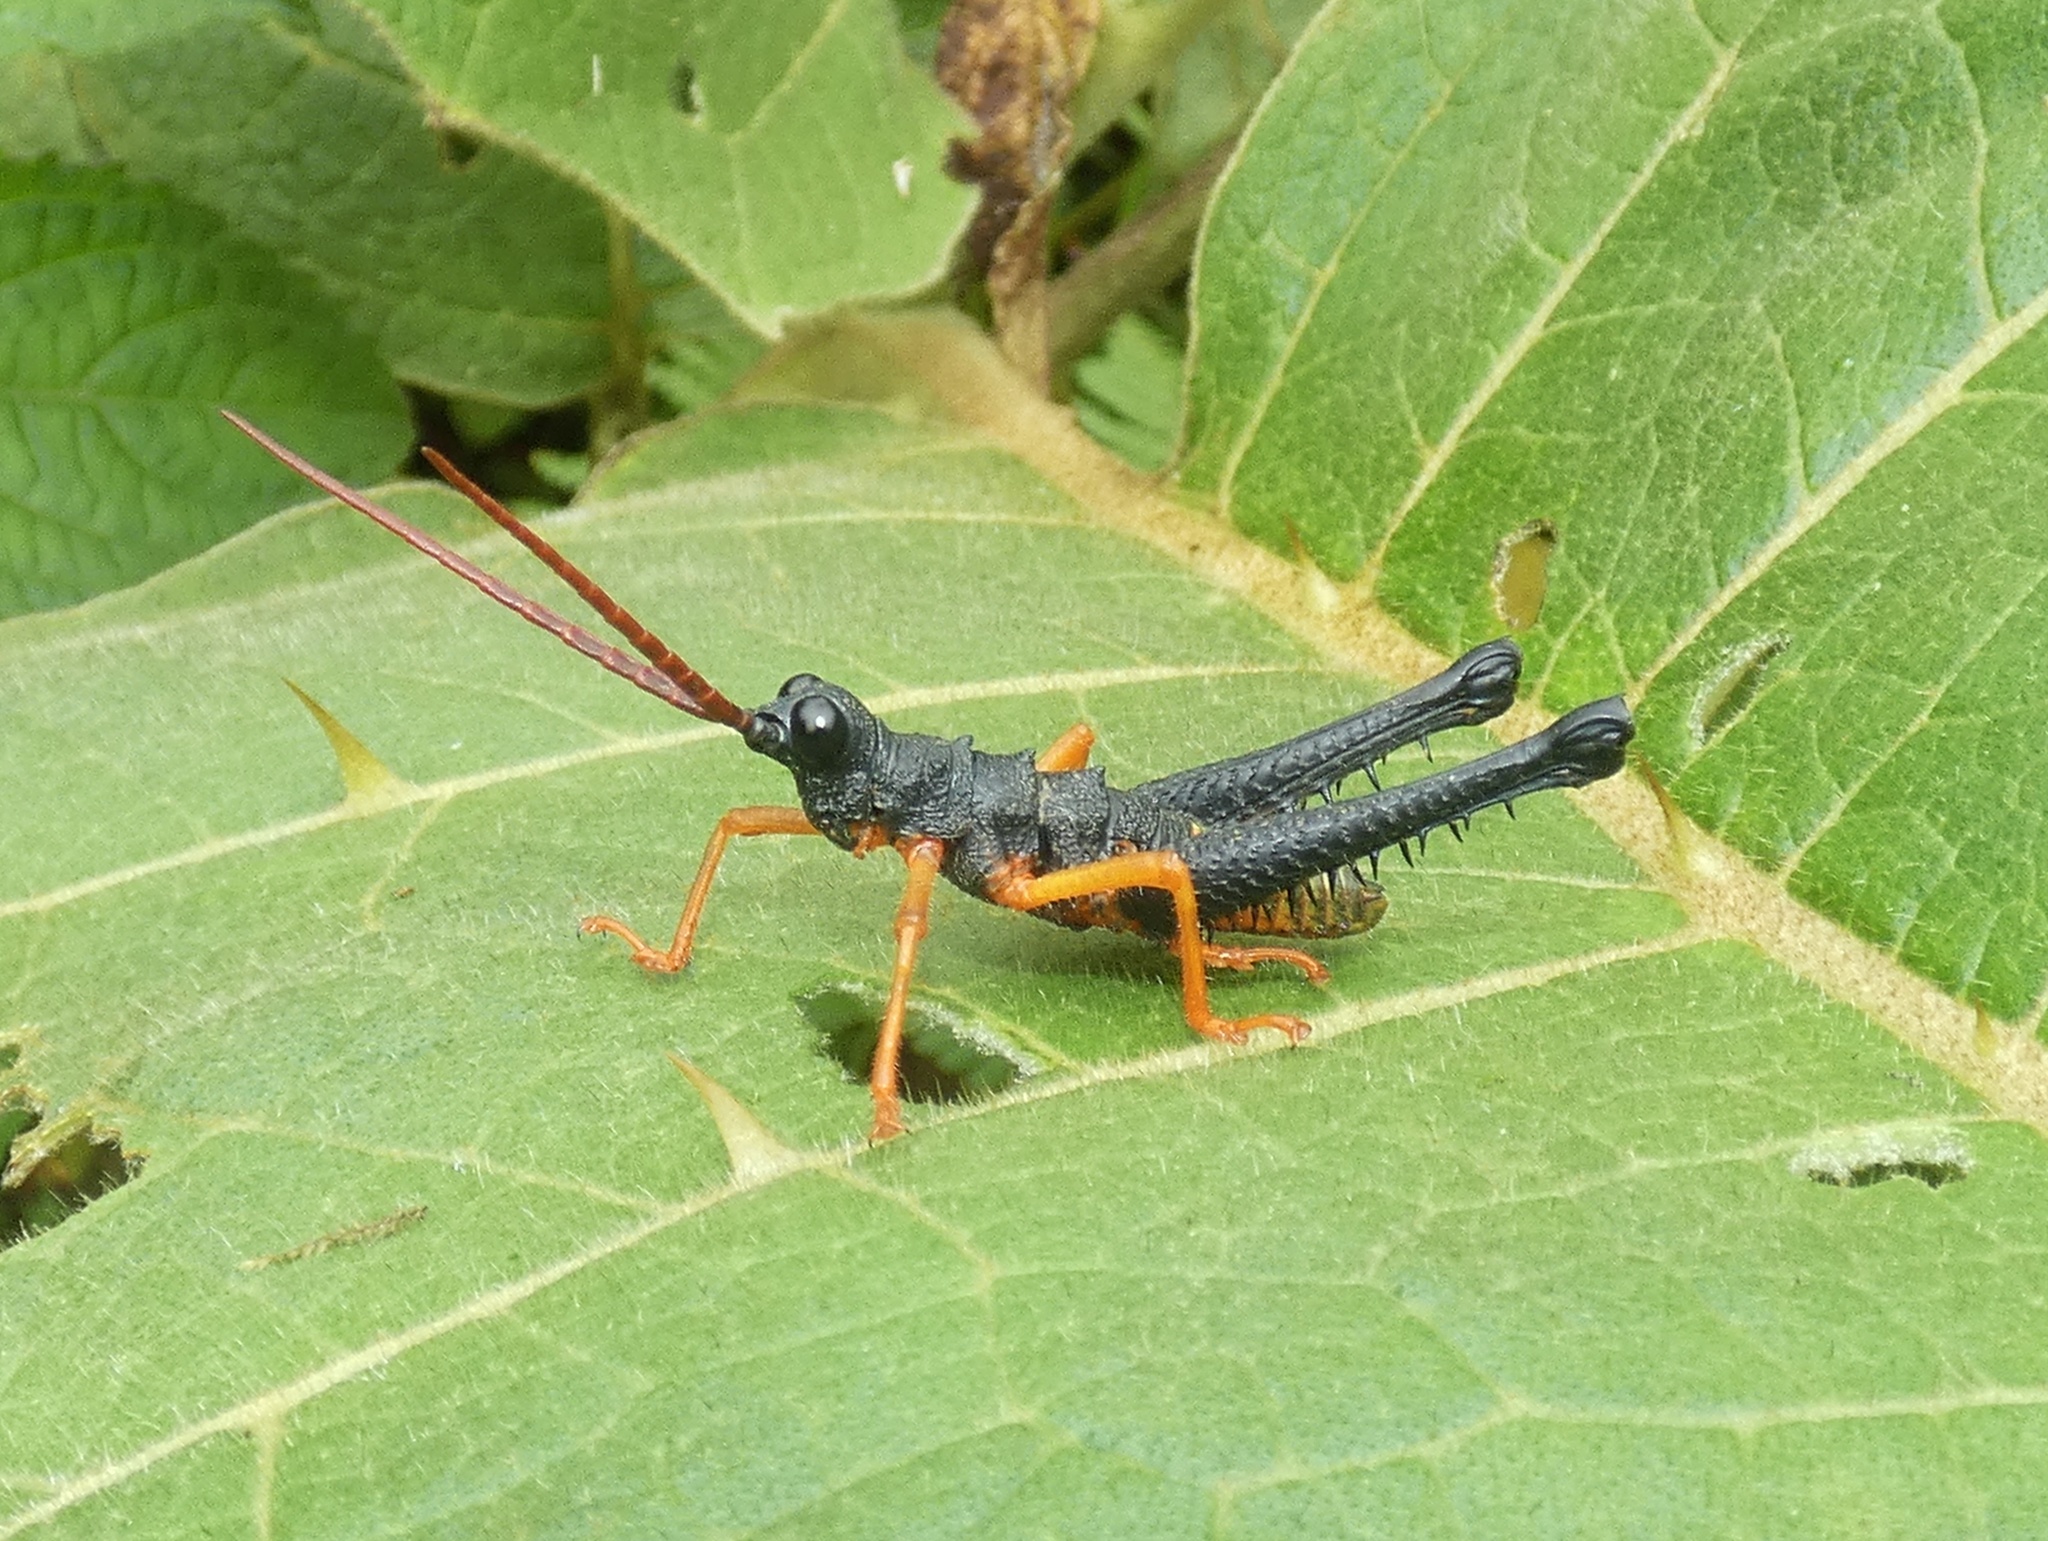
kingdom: Animalia
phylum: Arthropoda
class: Insecta
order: Orthoptera
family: Acrididae
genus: Piezops
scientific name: Piezops ensicornis
